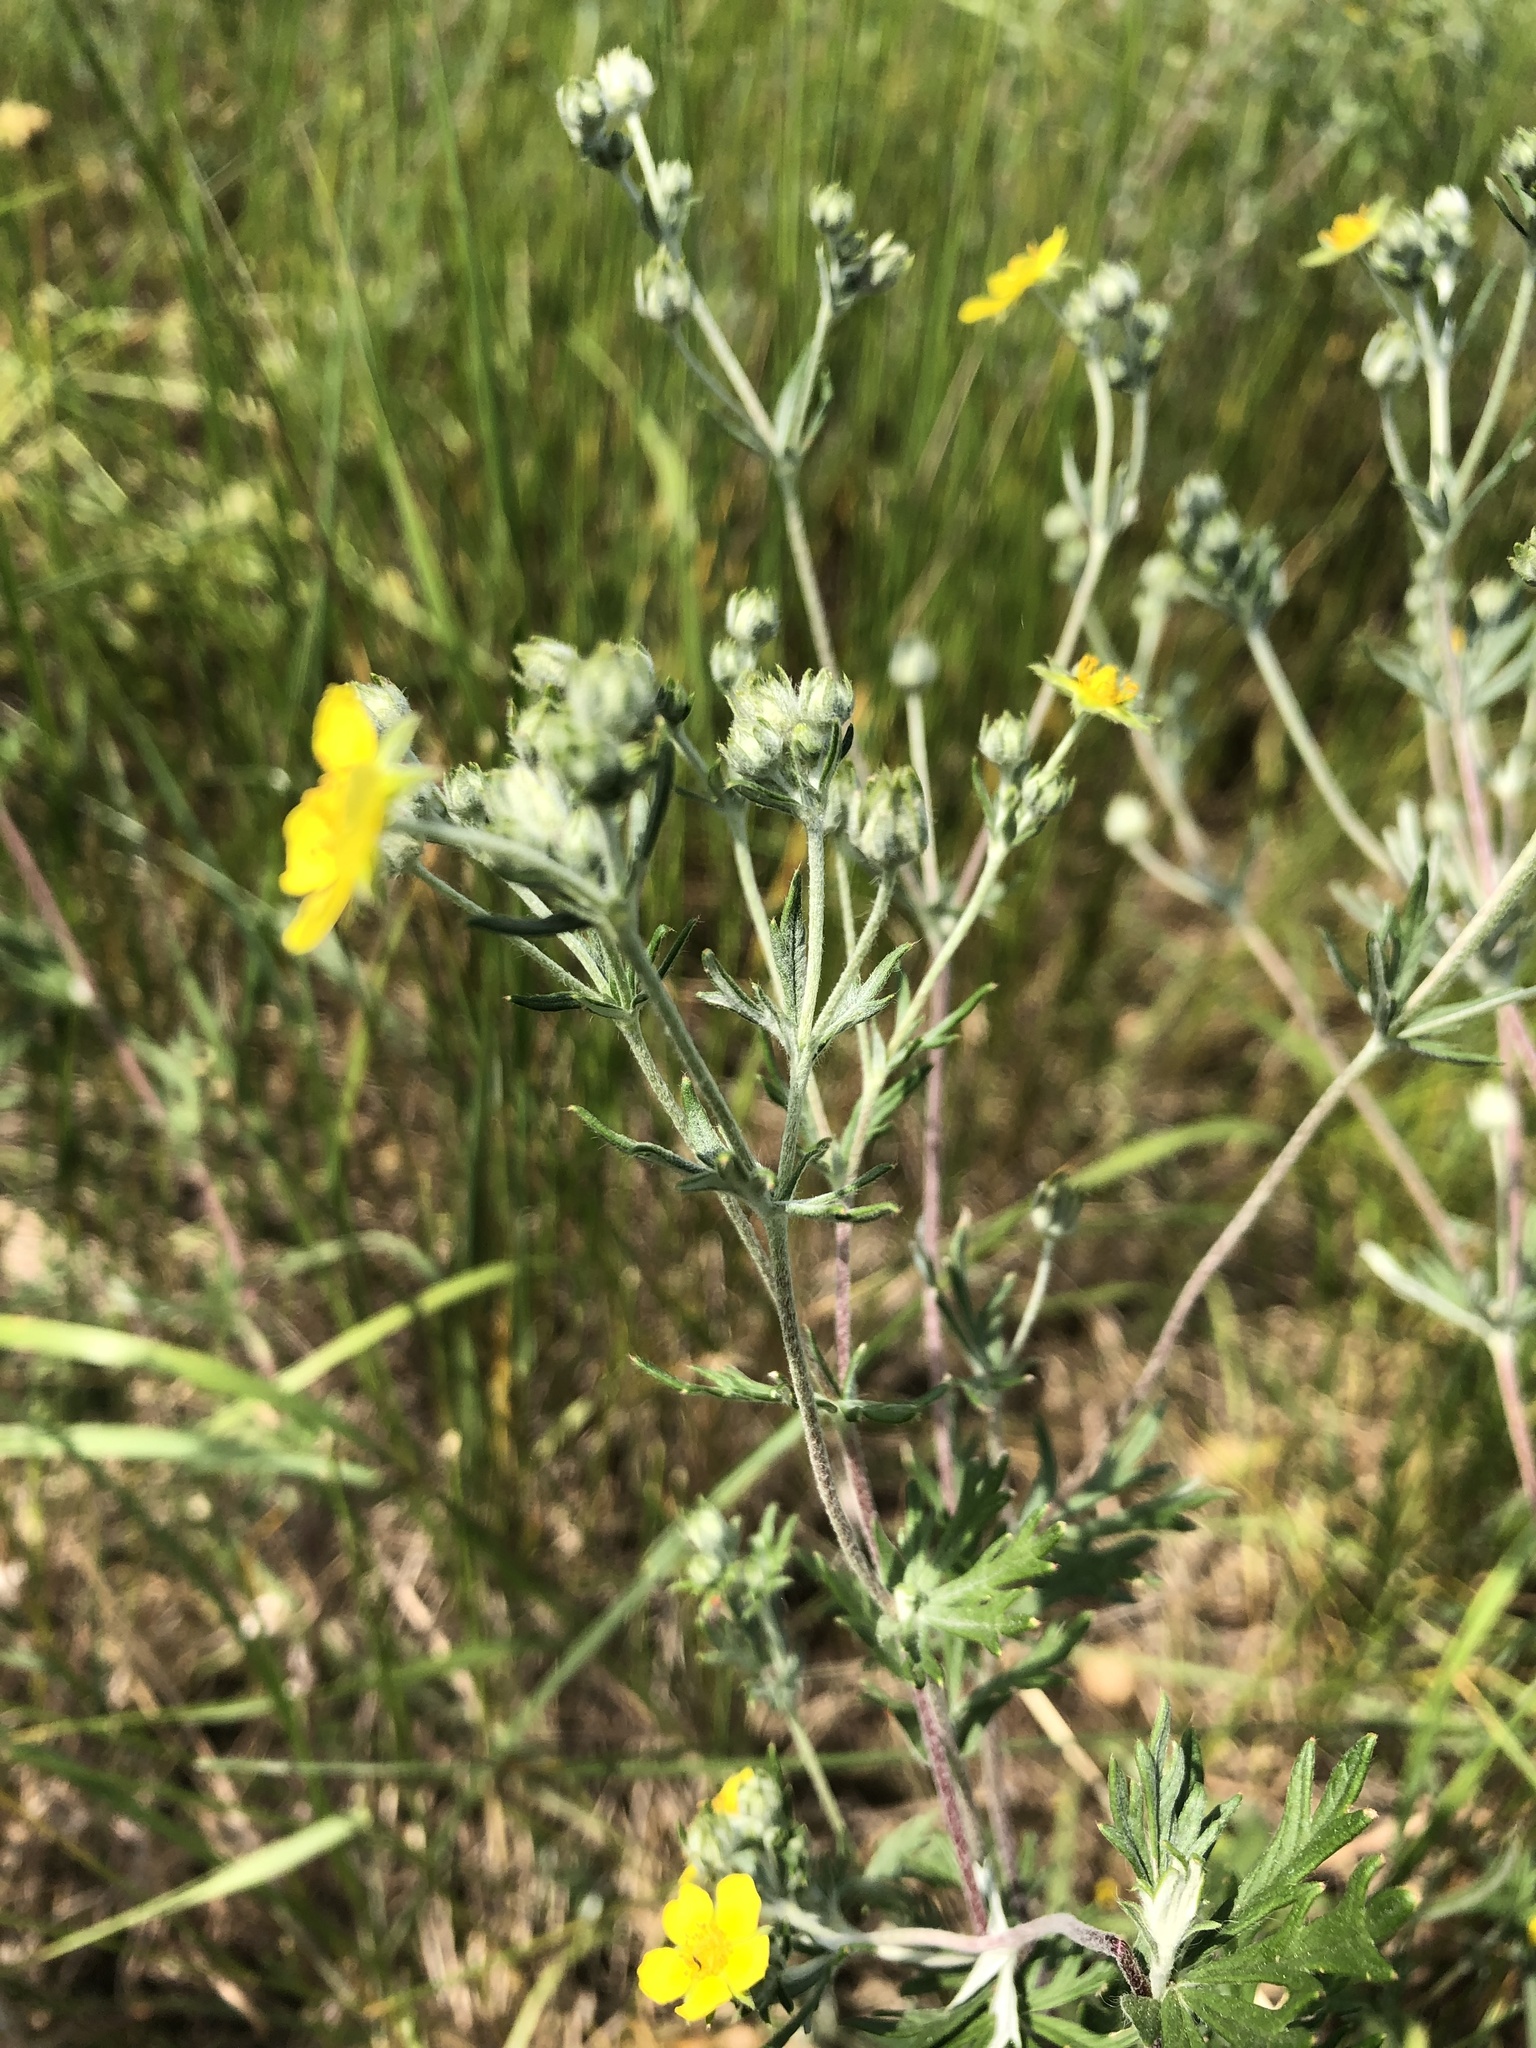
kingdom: Plantae
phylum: Tracheophyta
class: Magnoliopsida
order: Rosales
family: Rosaceae
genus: Potentilla
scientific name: Potentilla argentea
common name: Hoary cinquefoil
